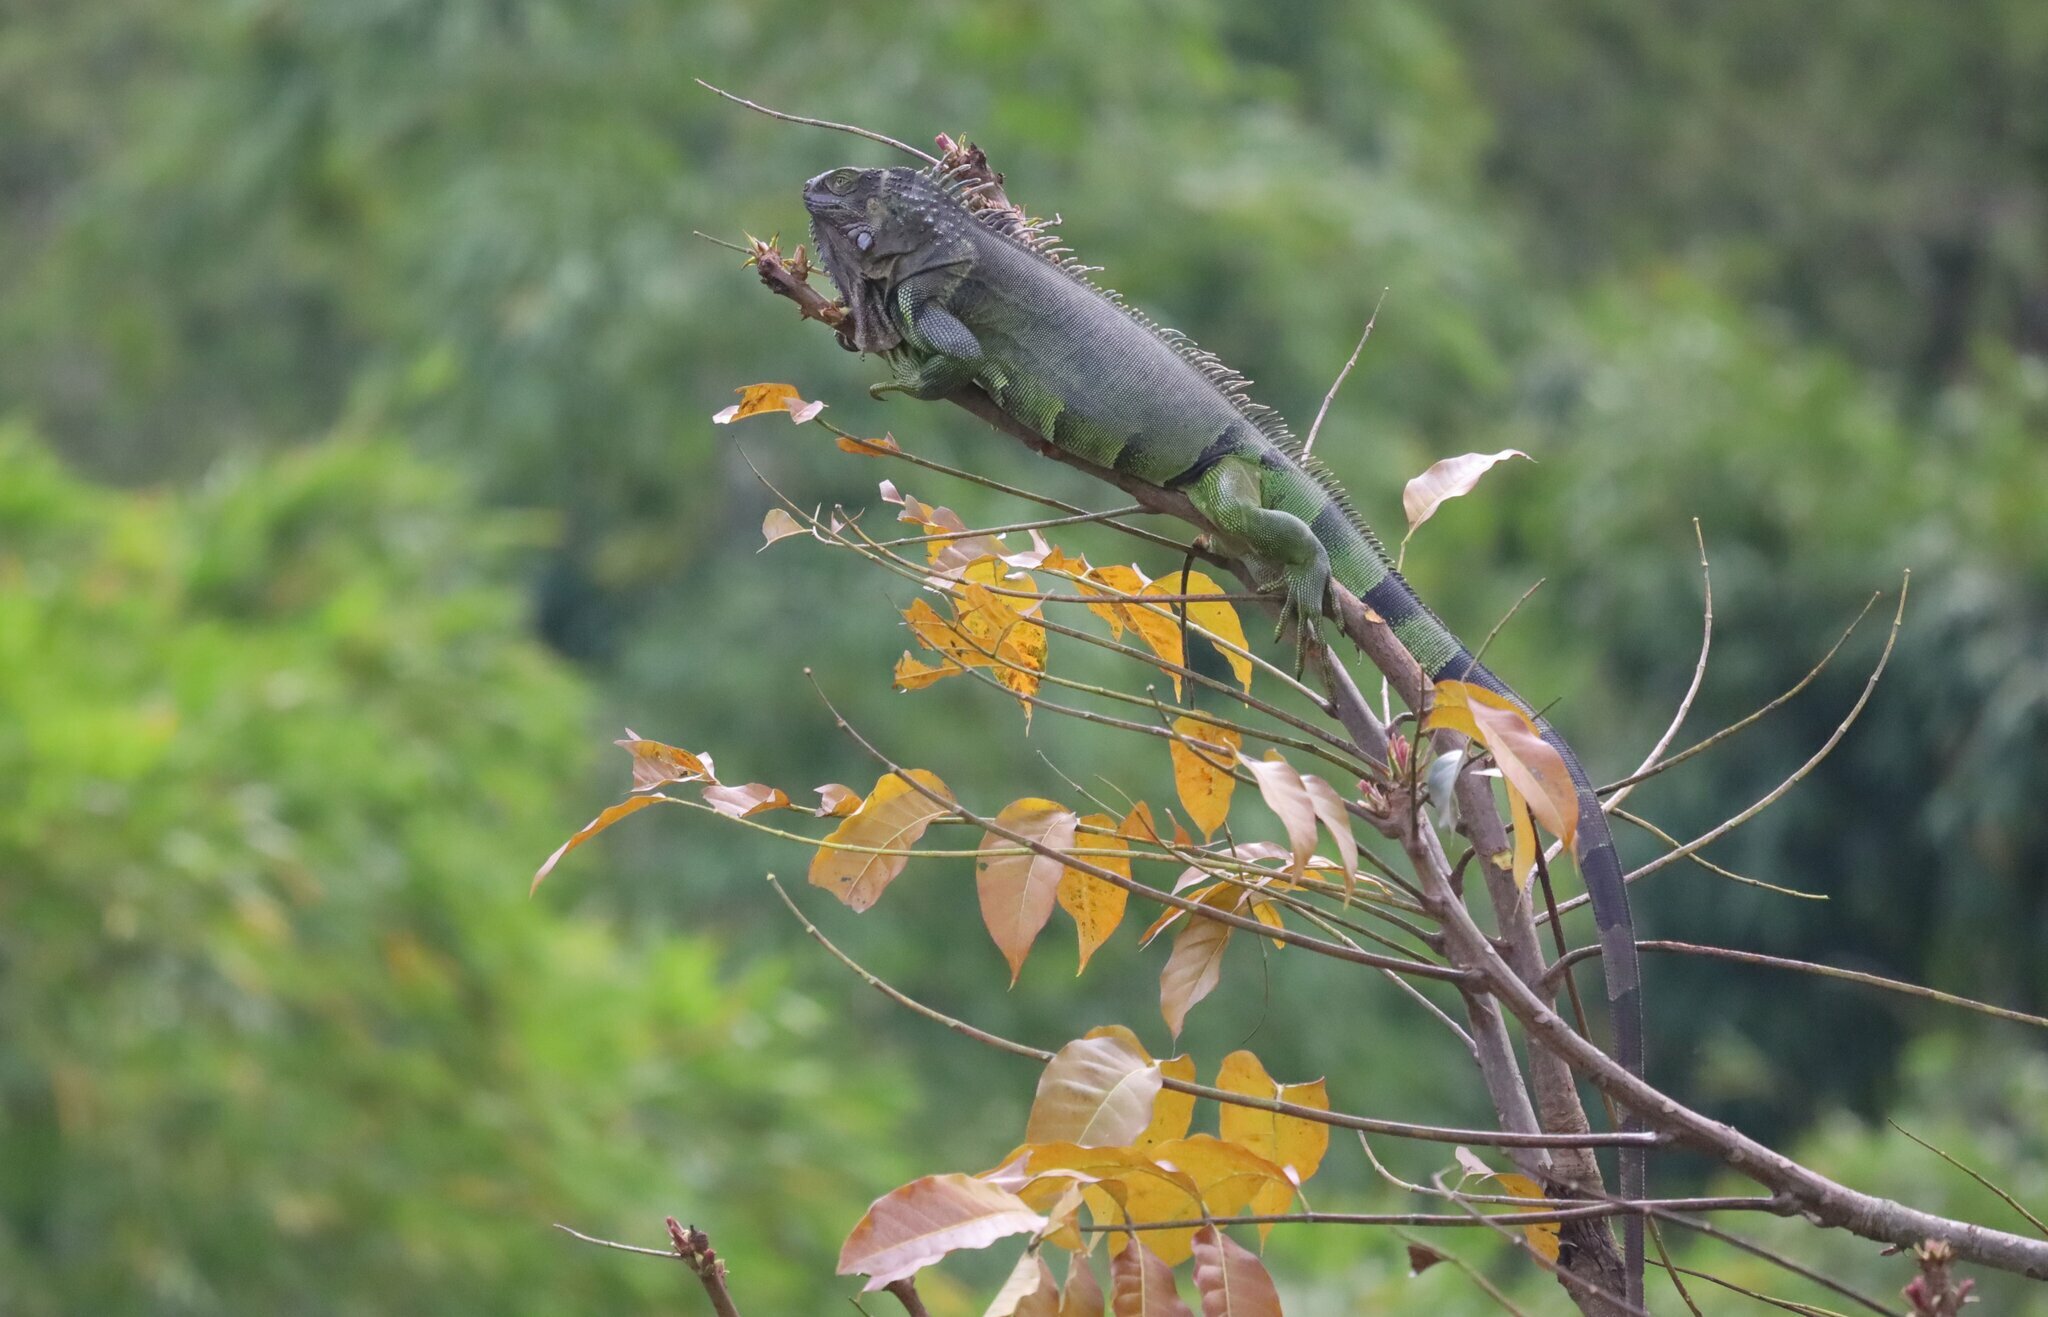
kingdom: Animalia
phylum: Chordata
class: Squamata
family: Iguanidae
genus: Iguana
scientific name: Iguana iguana
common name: Green iguana
